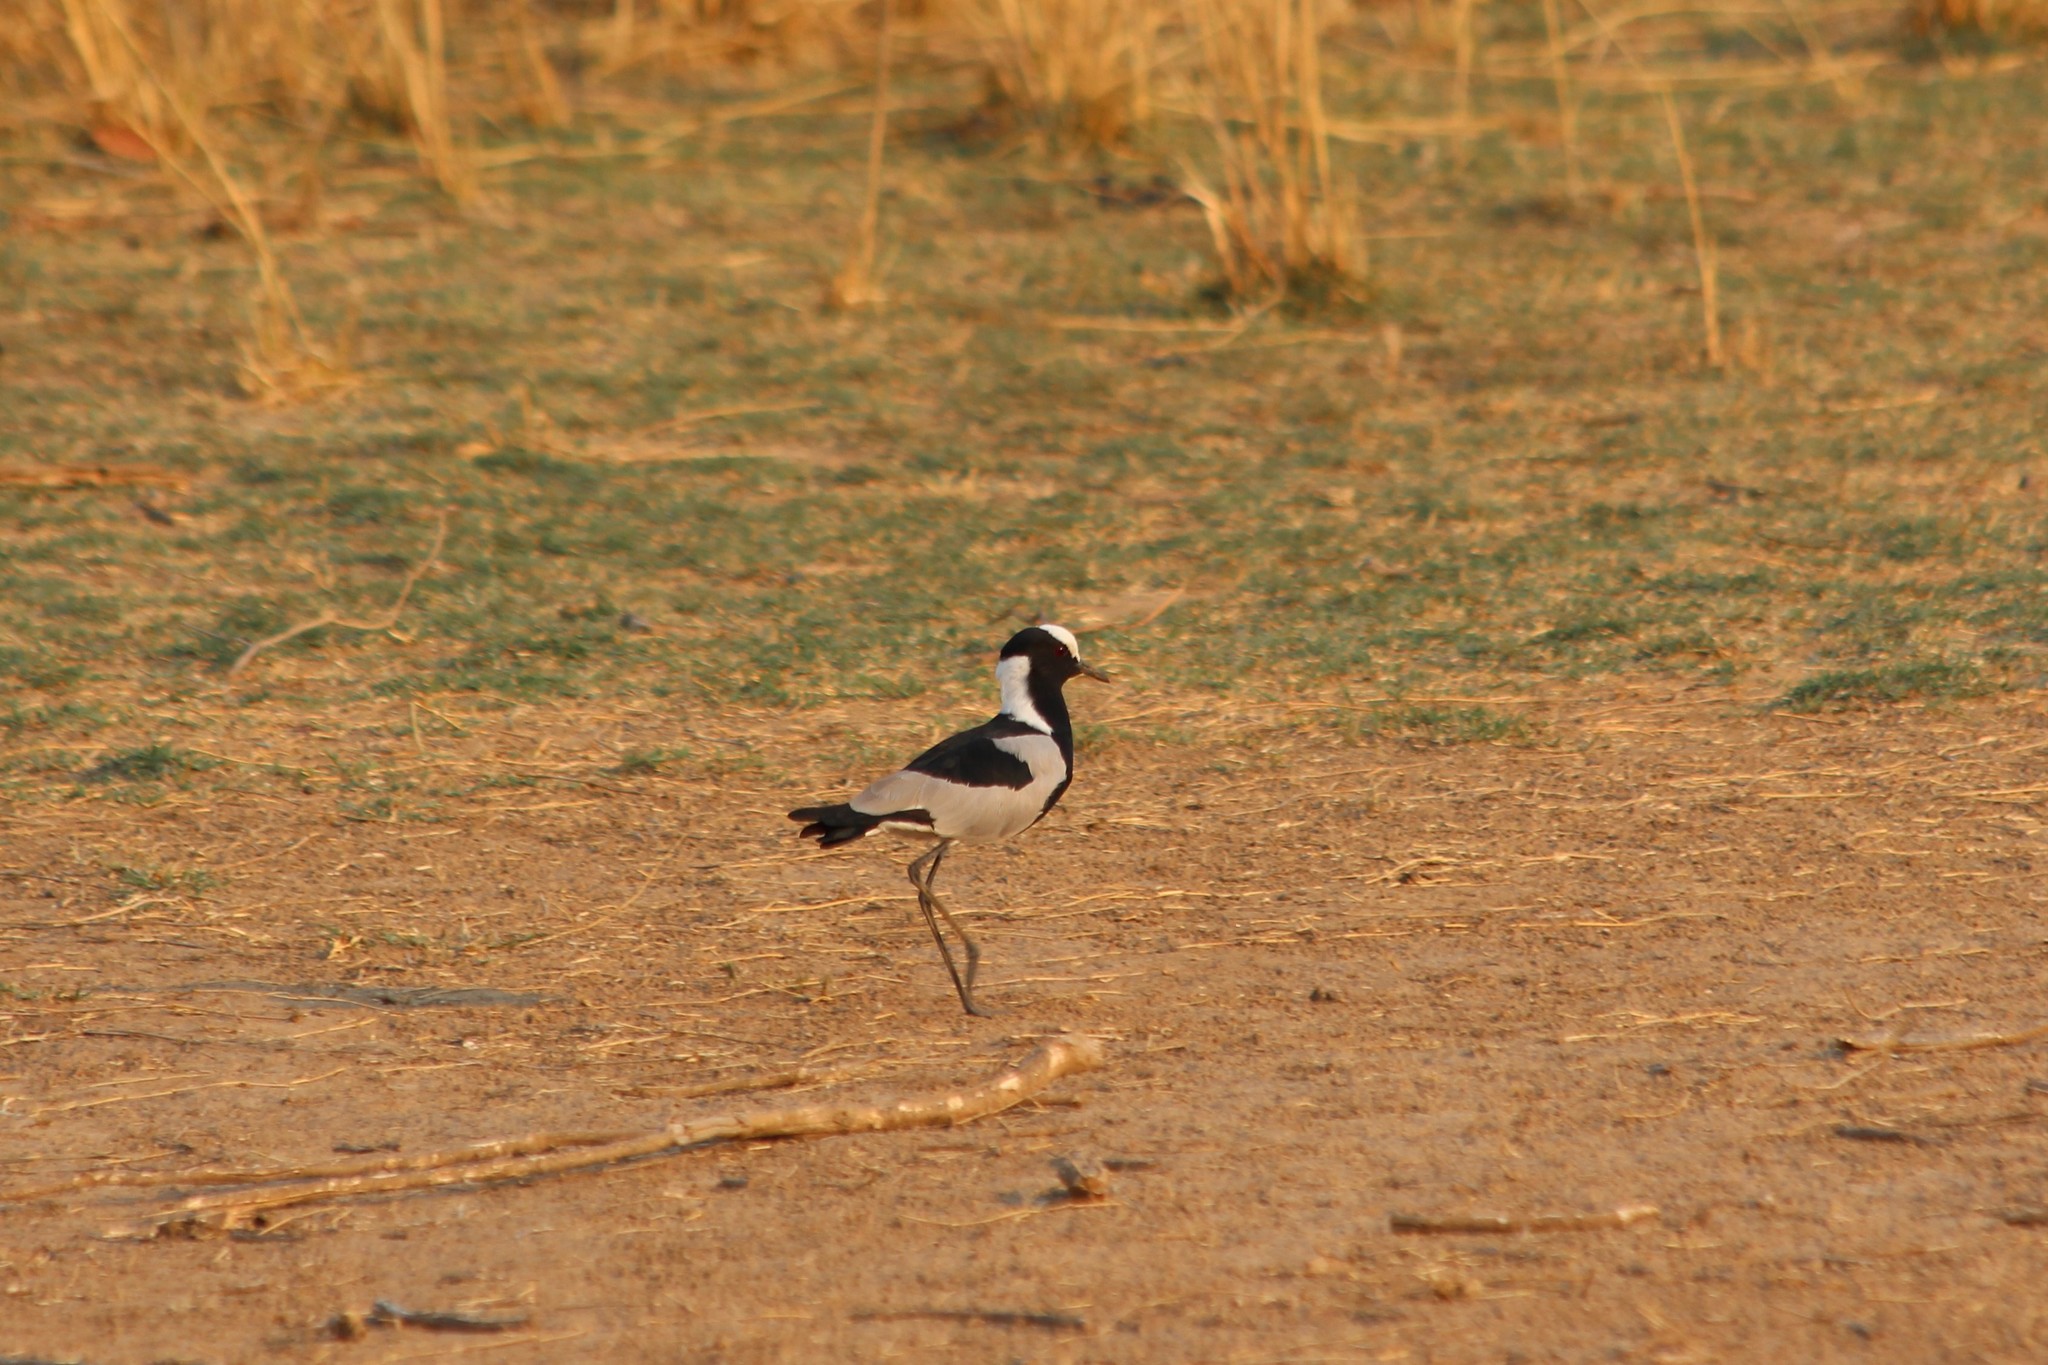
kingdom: Animalia
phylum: Chordata
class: Aves
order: Charadriiformes
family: Charadriidae
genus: Vanellus
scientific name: Vanellus armatus
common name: Blacksmith lapwing
